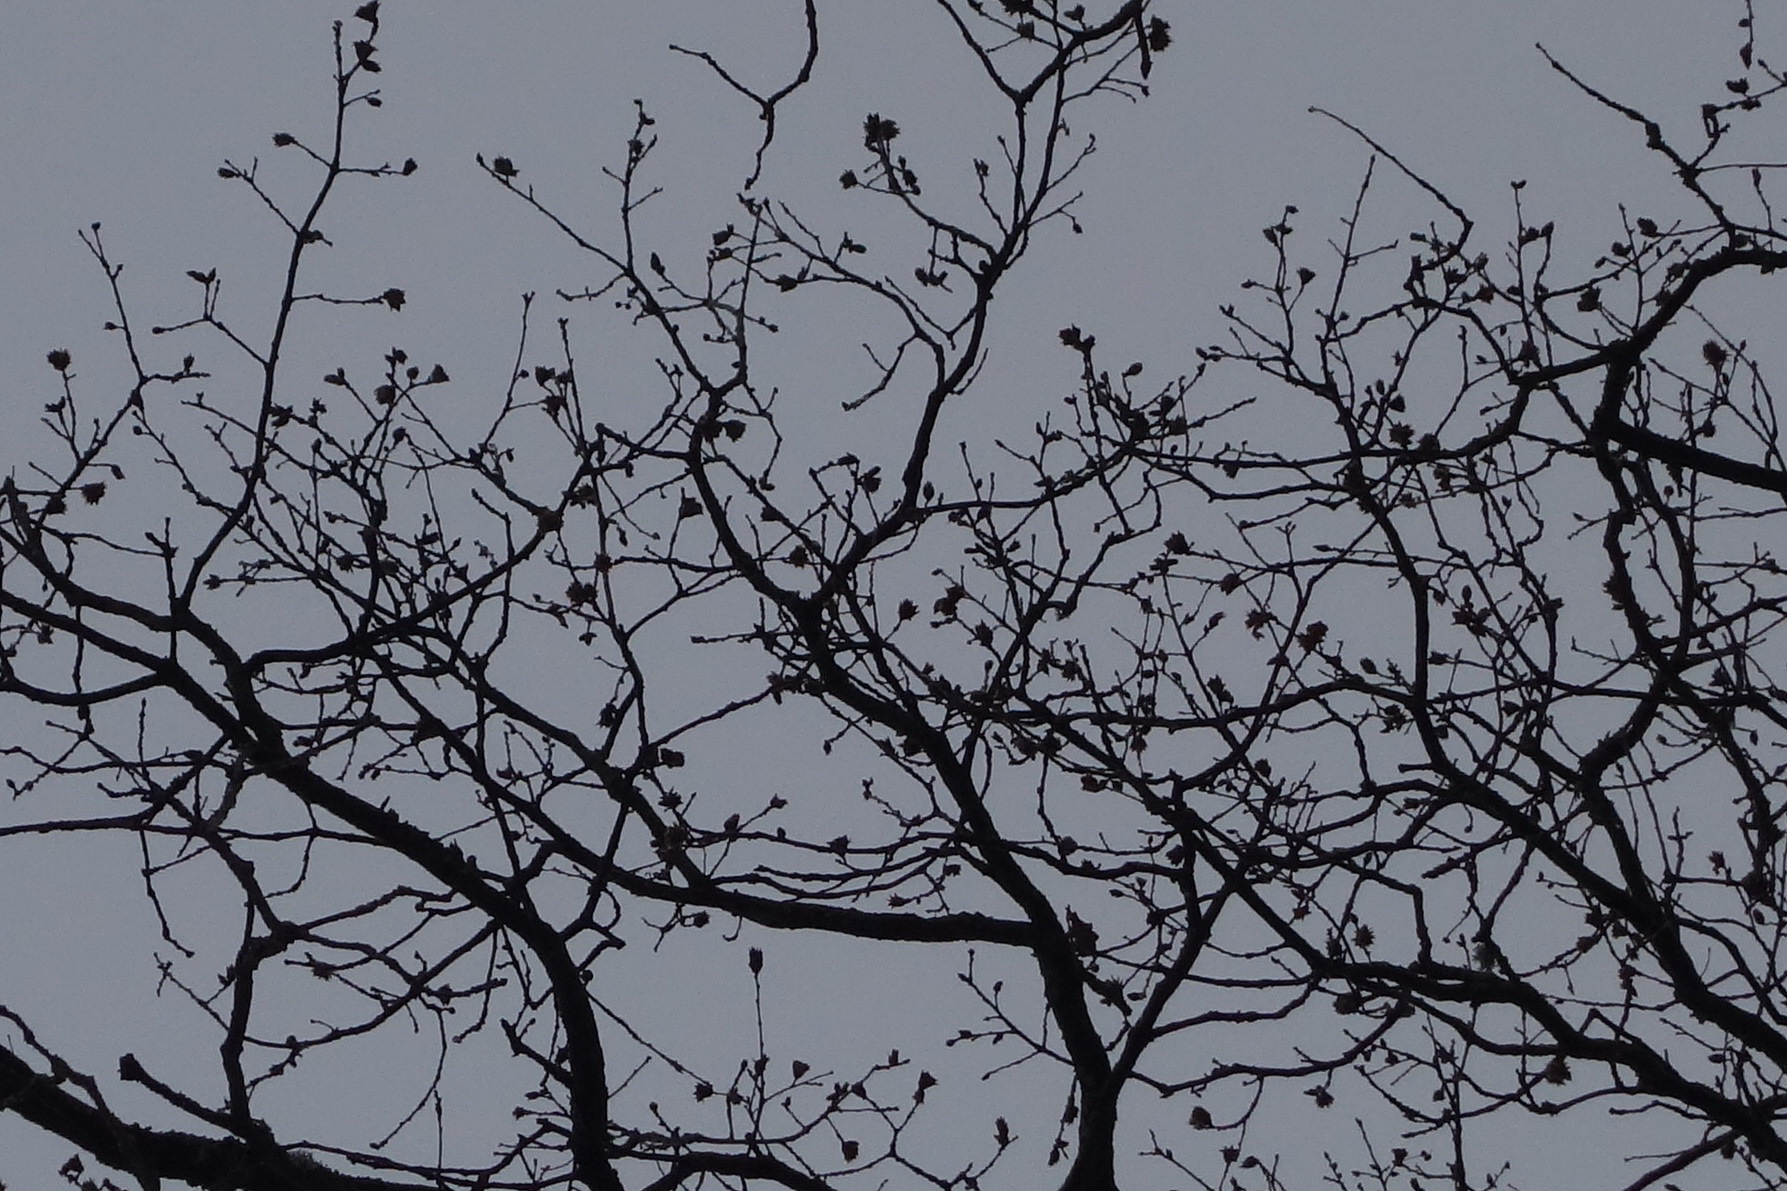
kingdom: Animalia
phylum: Arthropoda
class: Insecta
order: Hymenoptera
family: Cynipidae
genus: Andricus
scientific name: Andricus foecundatrix
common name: Artichoke gall
